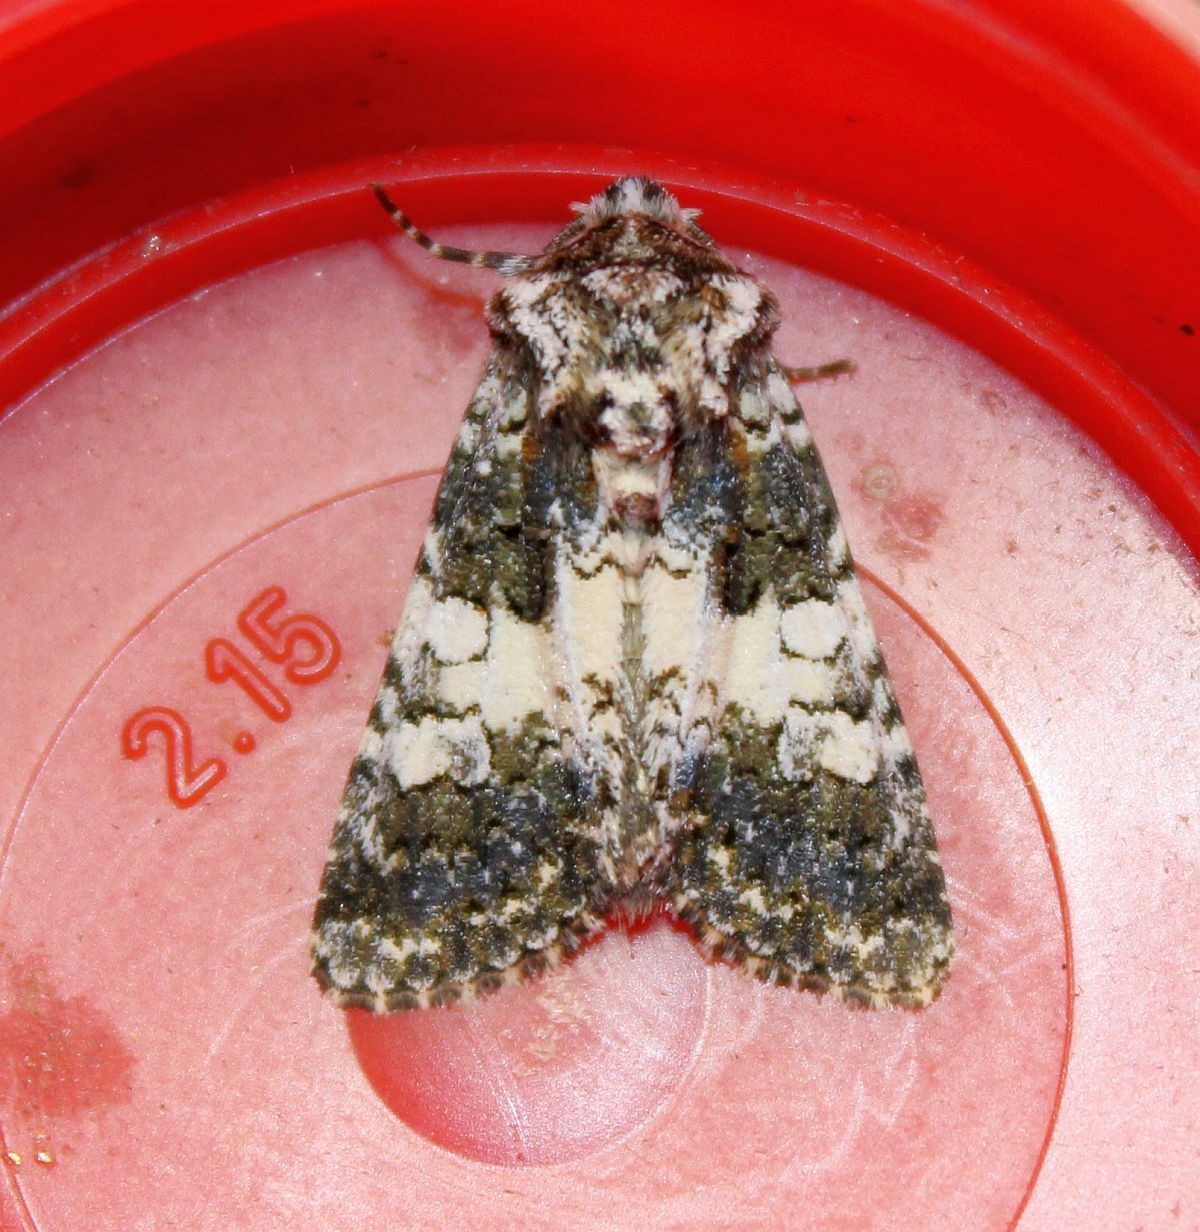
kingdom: Animalia
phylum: Arthropoda
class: Insecta
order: Lepidoptera
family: Noctuidae
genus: Hadena
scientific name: Hadena compta
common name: Varied coronet
